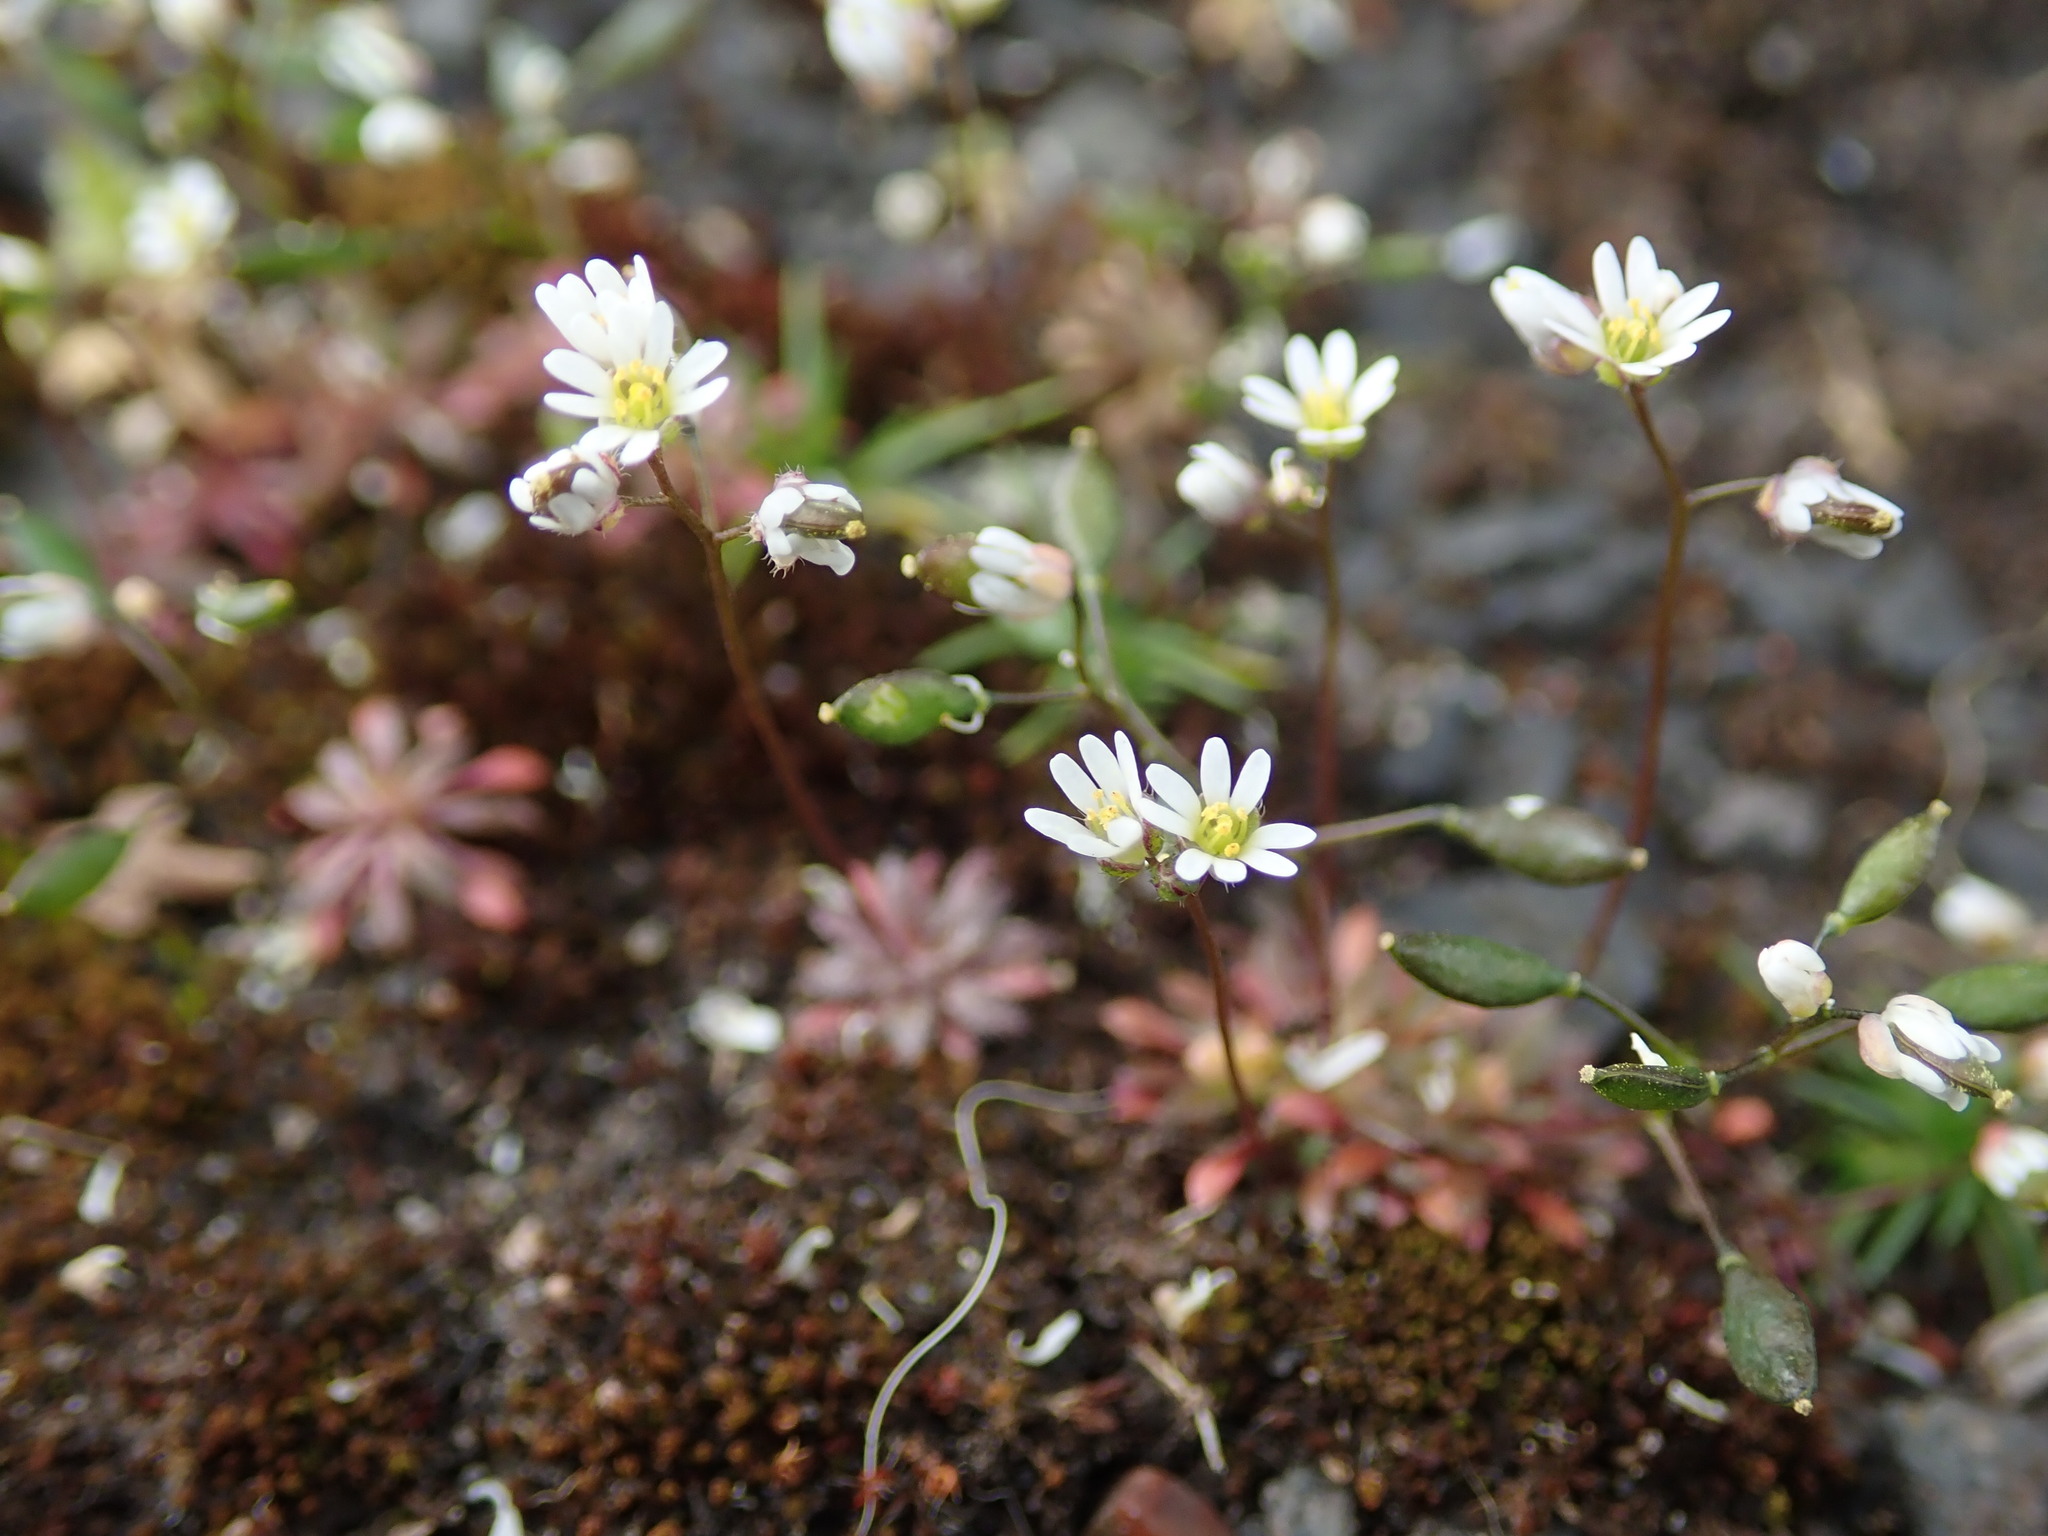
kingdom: Plantae
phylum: Tracheophyta
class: Magnoliopsida
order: Brassicales
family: Brassicaceae
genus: Draba
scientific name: Draba verna
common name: Spring draba
